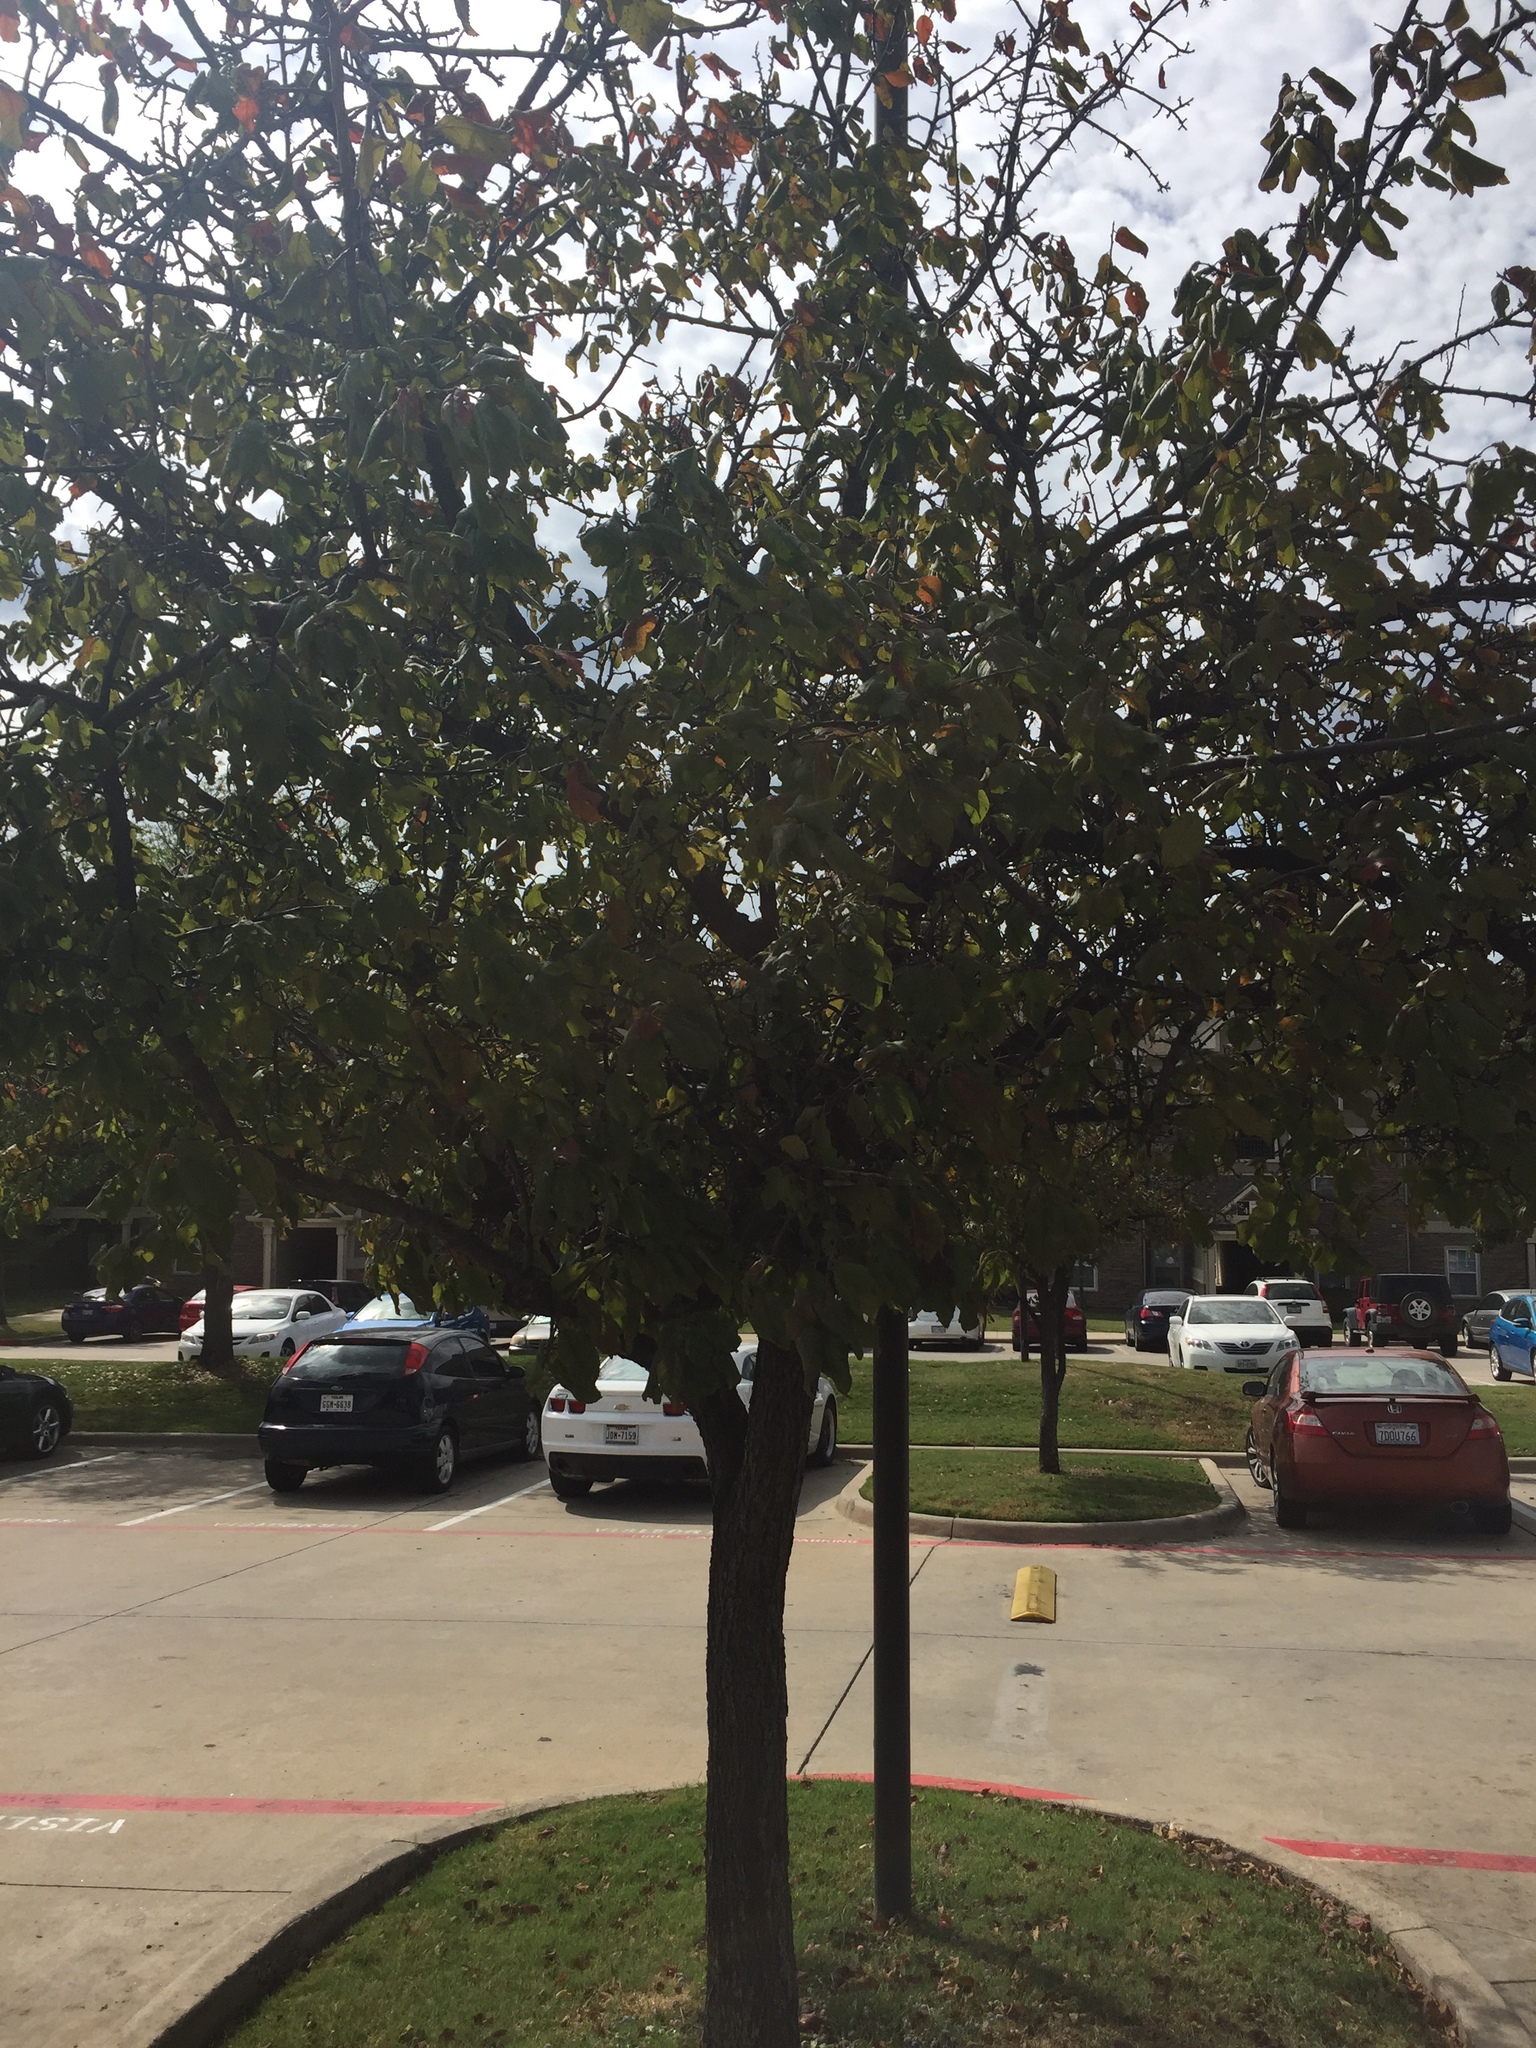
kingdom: Plantae
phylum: Tracheophyta
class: Magnoliopsida
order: Rosales
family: Rosaceae
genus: Prunus
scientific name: Prunus mexicana
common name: Mexican plum
